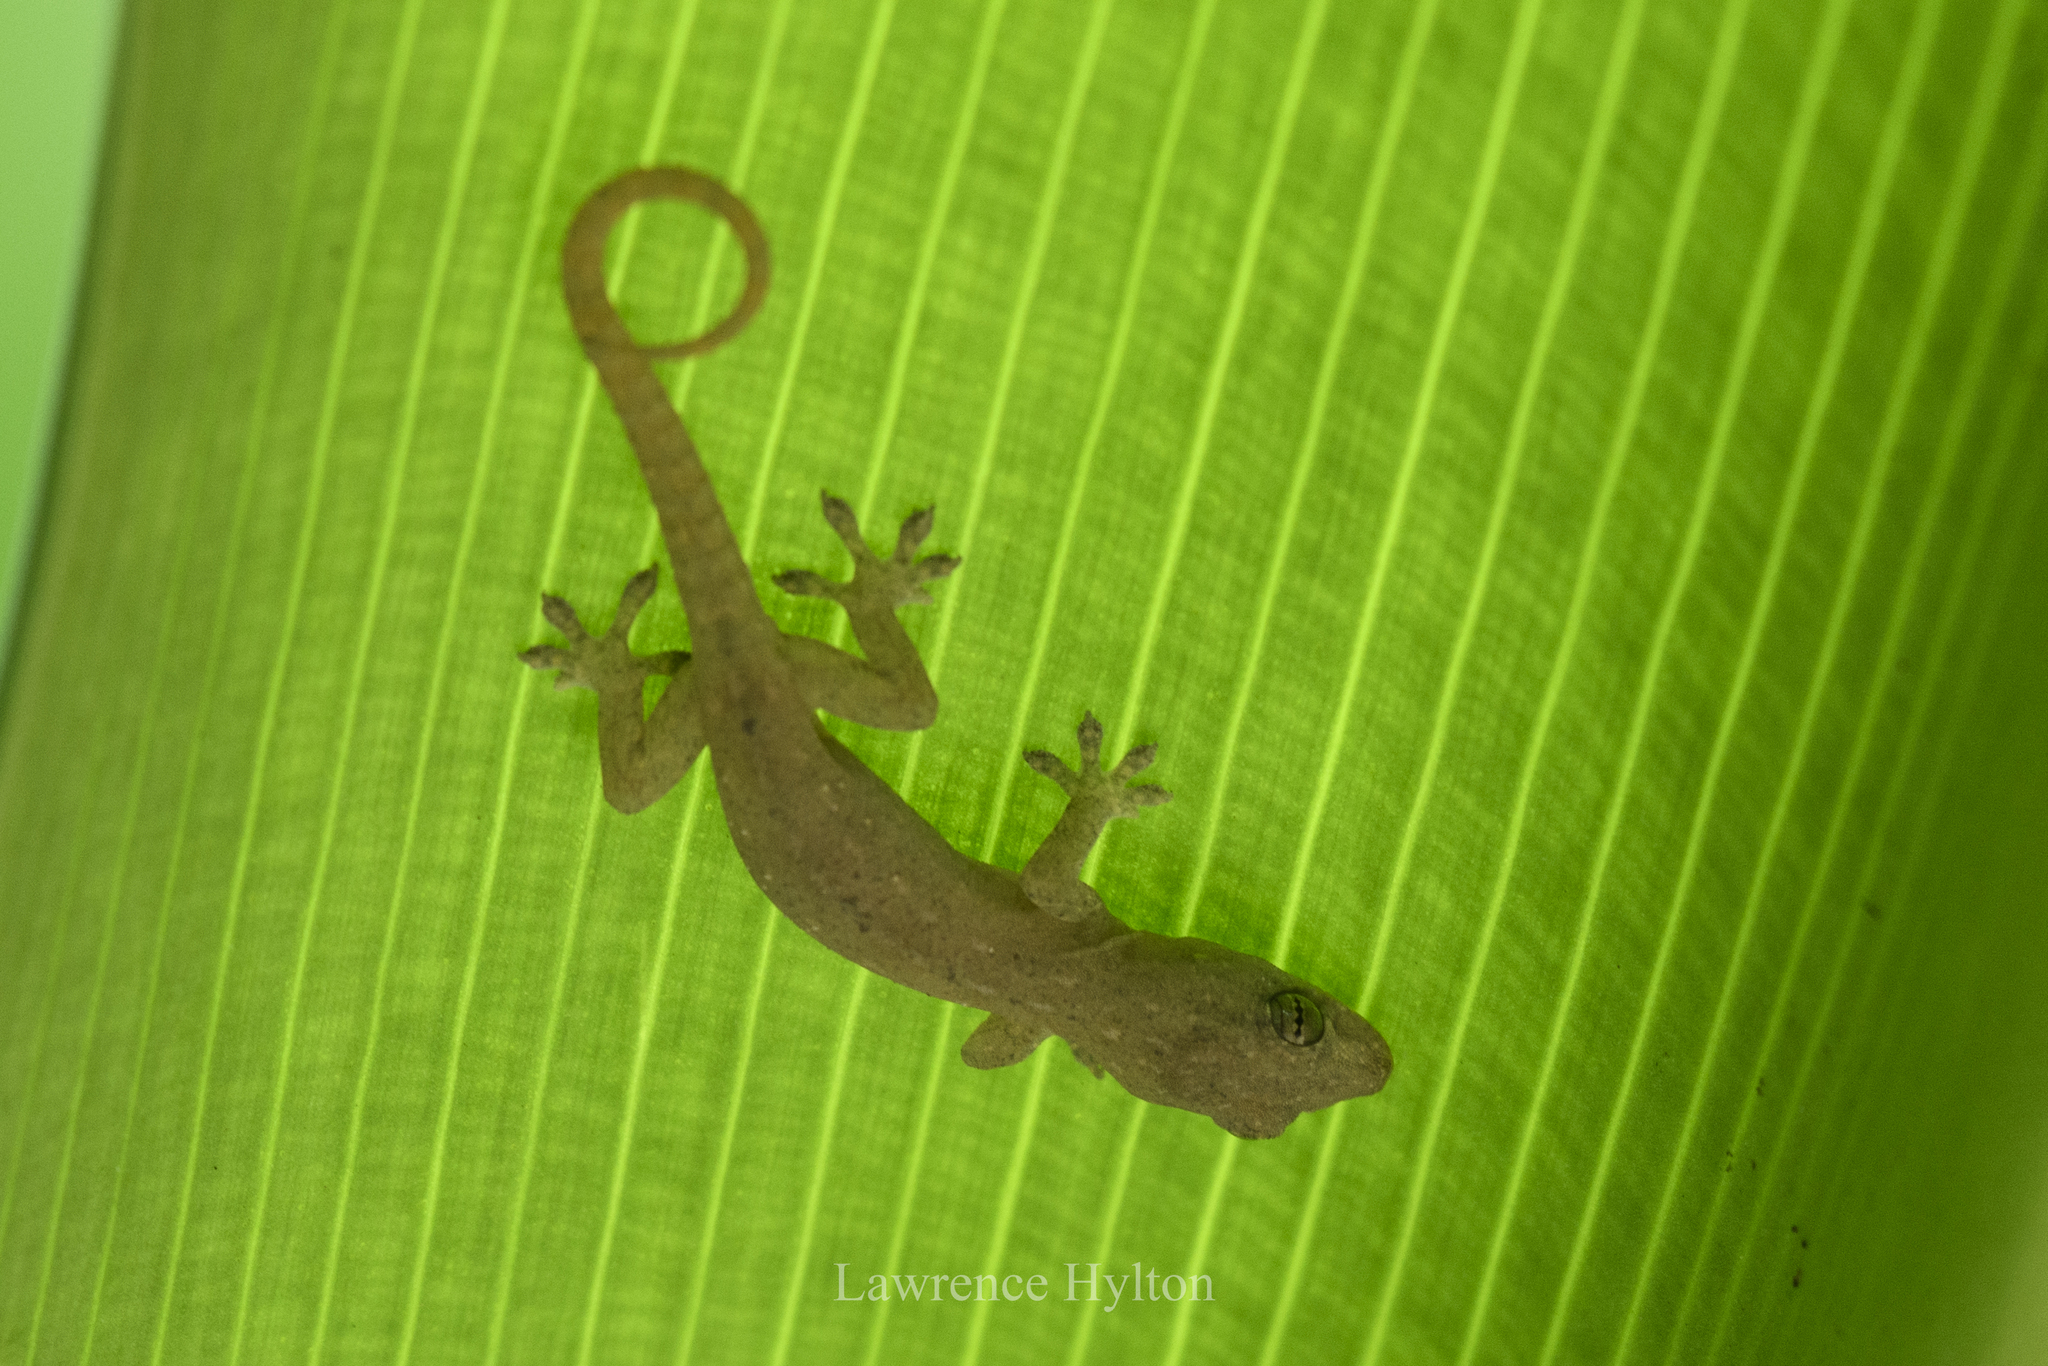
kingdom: Animalia
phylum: Chordata
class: Squamata
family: Gekkonidae
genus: Hemidactylus
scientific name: Hemidactylus frenatus
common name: Common house gecko
